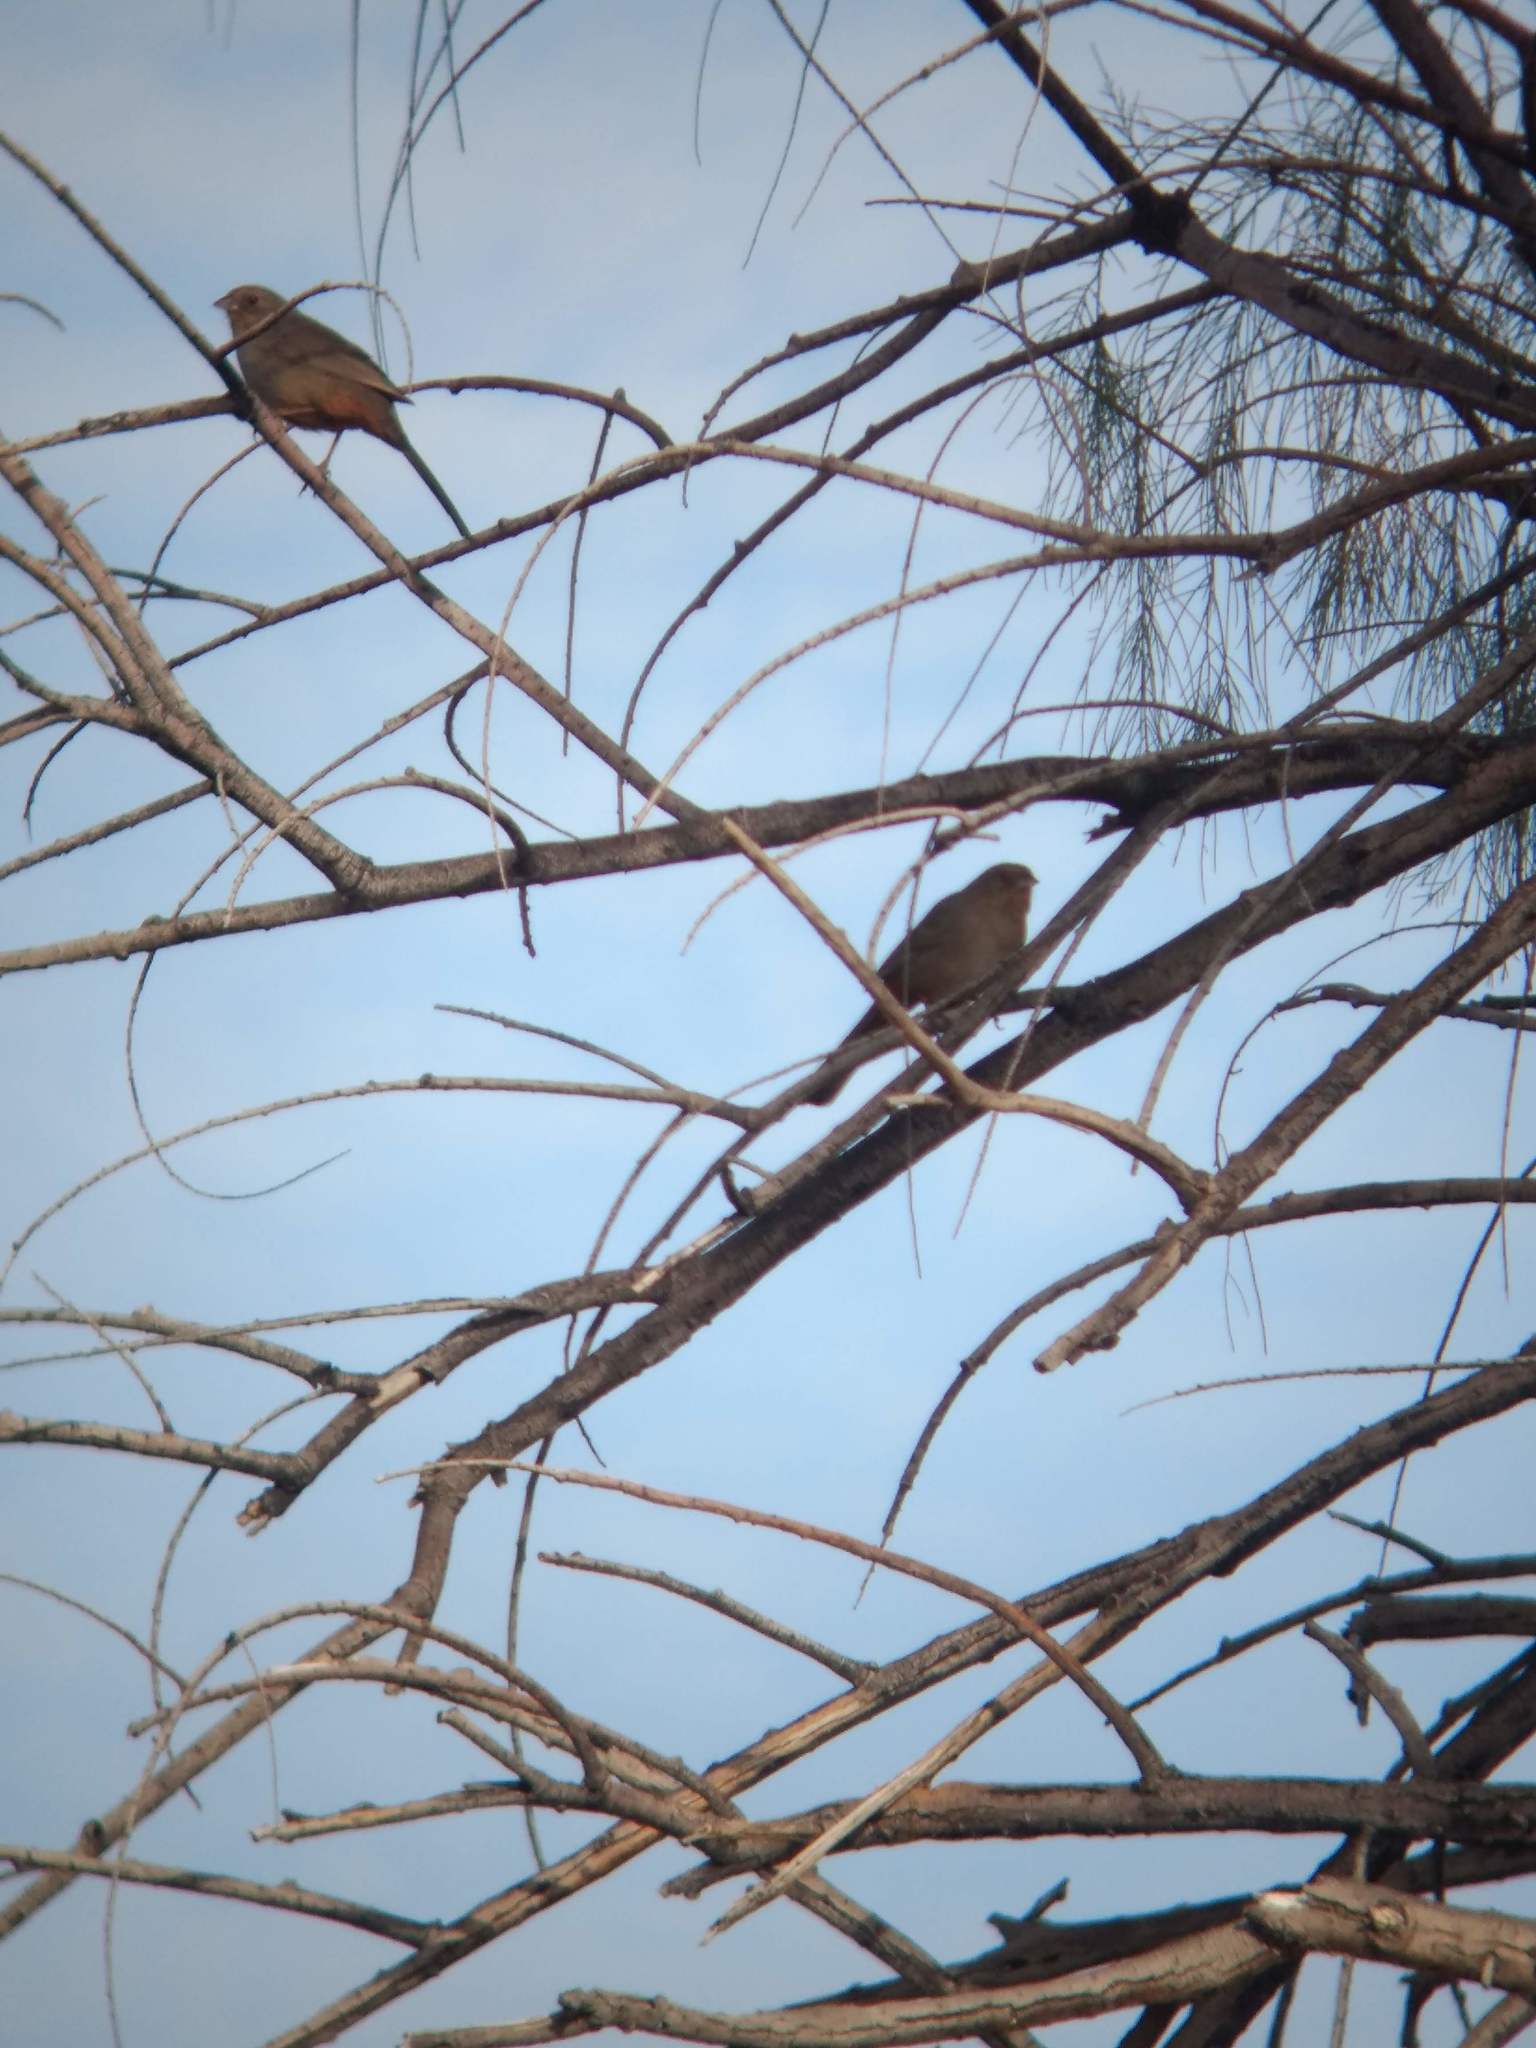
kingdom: Animalia
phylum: Chordata
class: Aves
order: Passeriformes
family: Passerellidae
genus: Melozone
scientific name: Melozone crissalis
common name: California towhee
